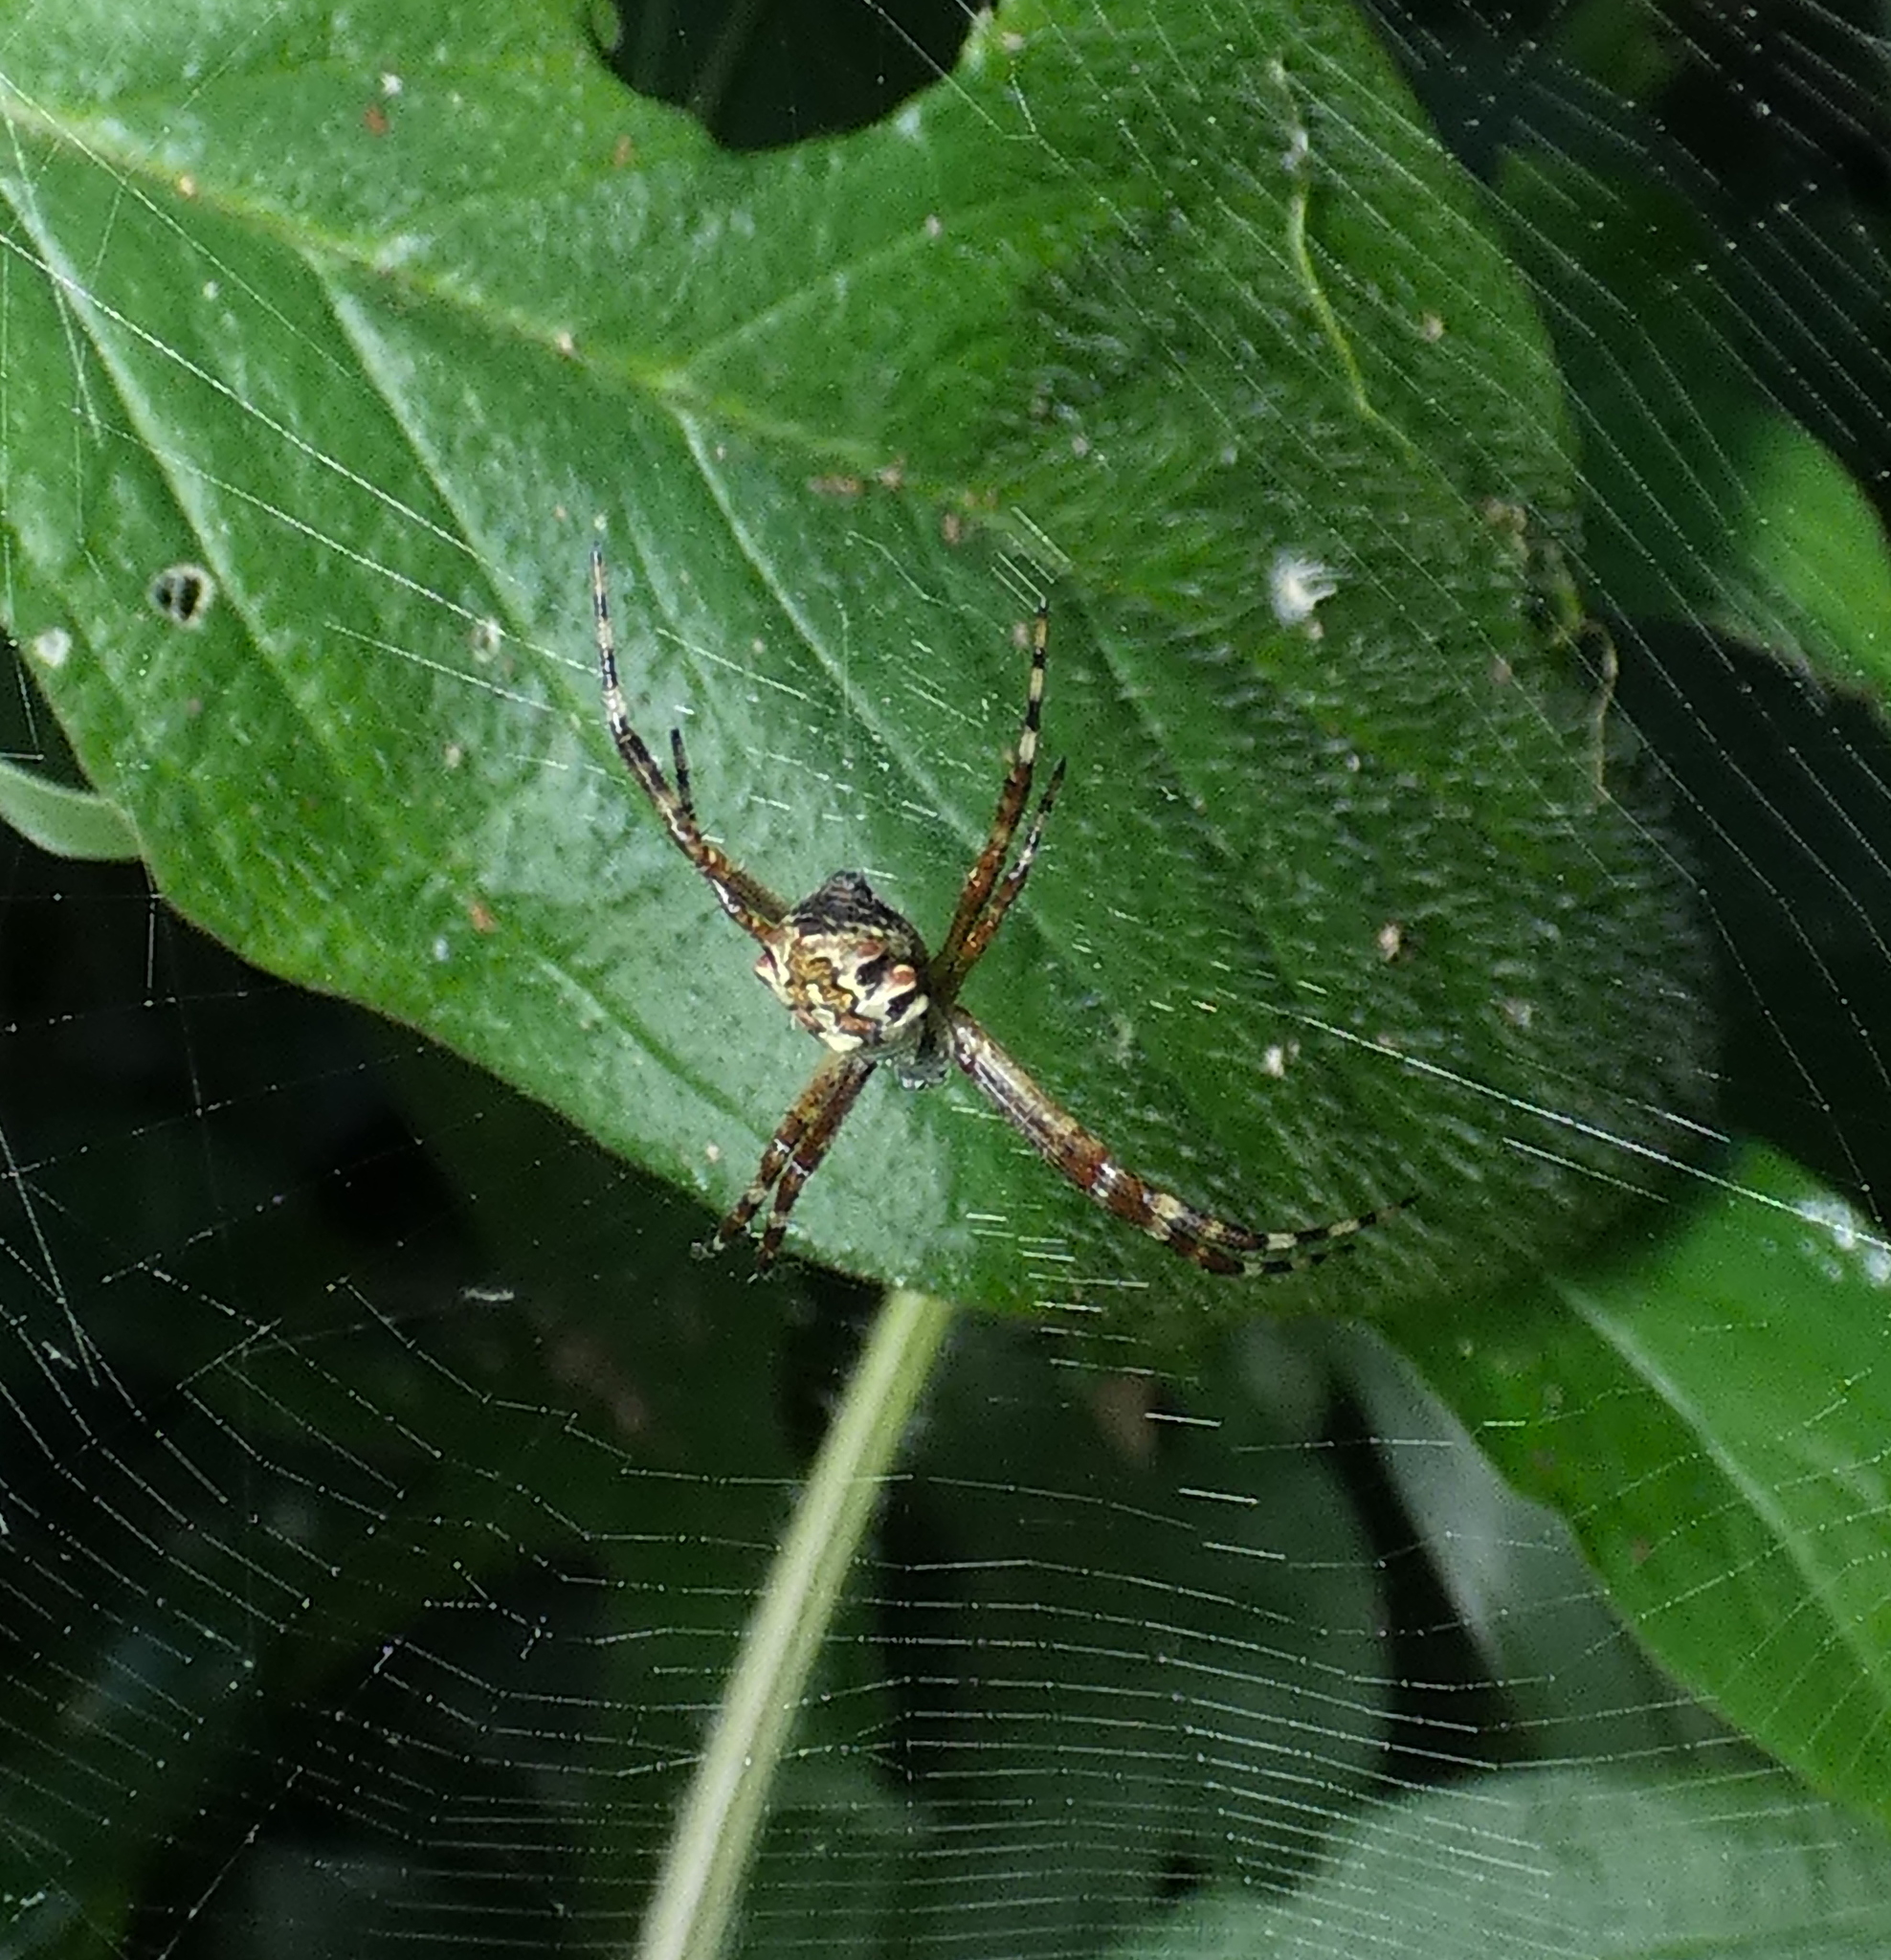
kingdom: Animalia
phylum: Arthropoda
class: Arachnida
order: Araneae
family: Araneidae
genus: Argiope
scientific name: Argiope argentata
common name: Orb weavers
